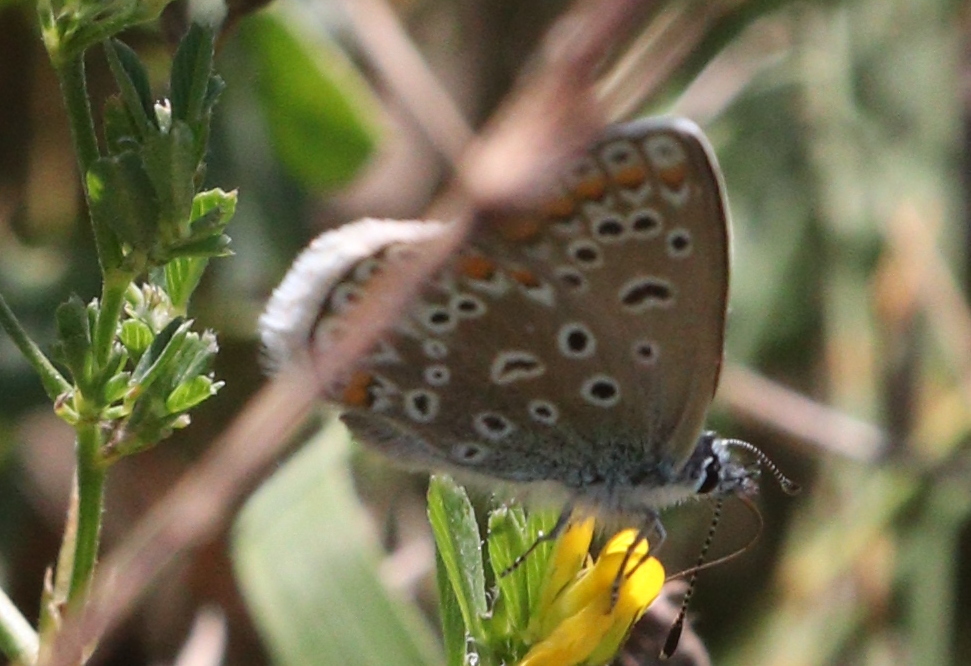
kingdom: Animalia
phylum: Arthropoda
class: Insecta
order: Lepidoptera
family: Lycaenidae
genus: Polyommatus
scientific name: Polyommatus icarus
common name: Common blue
